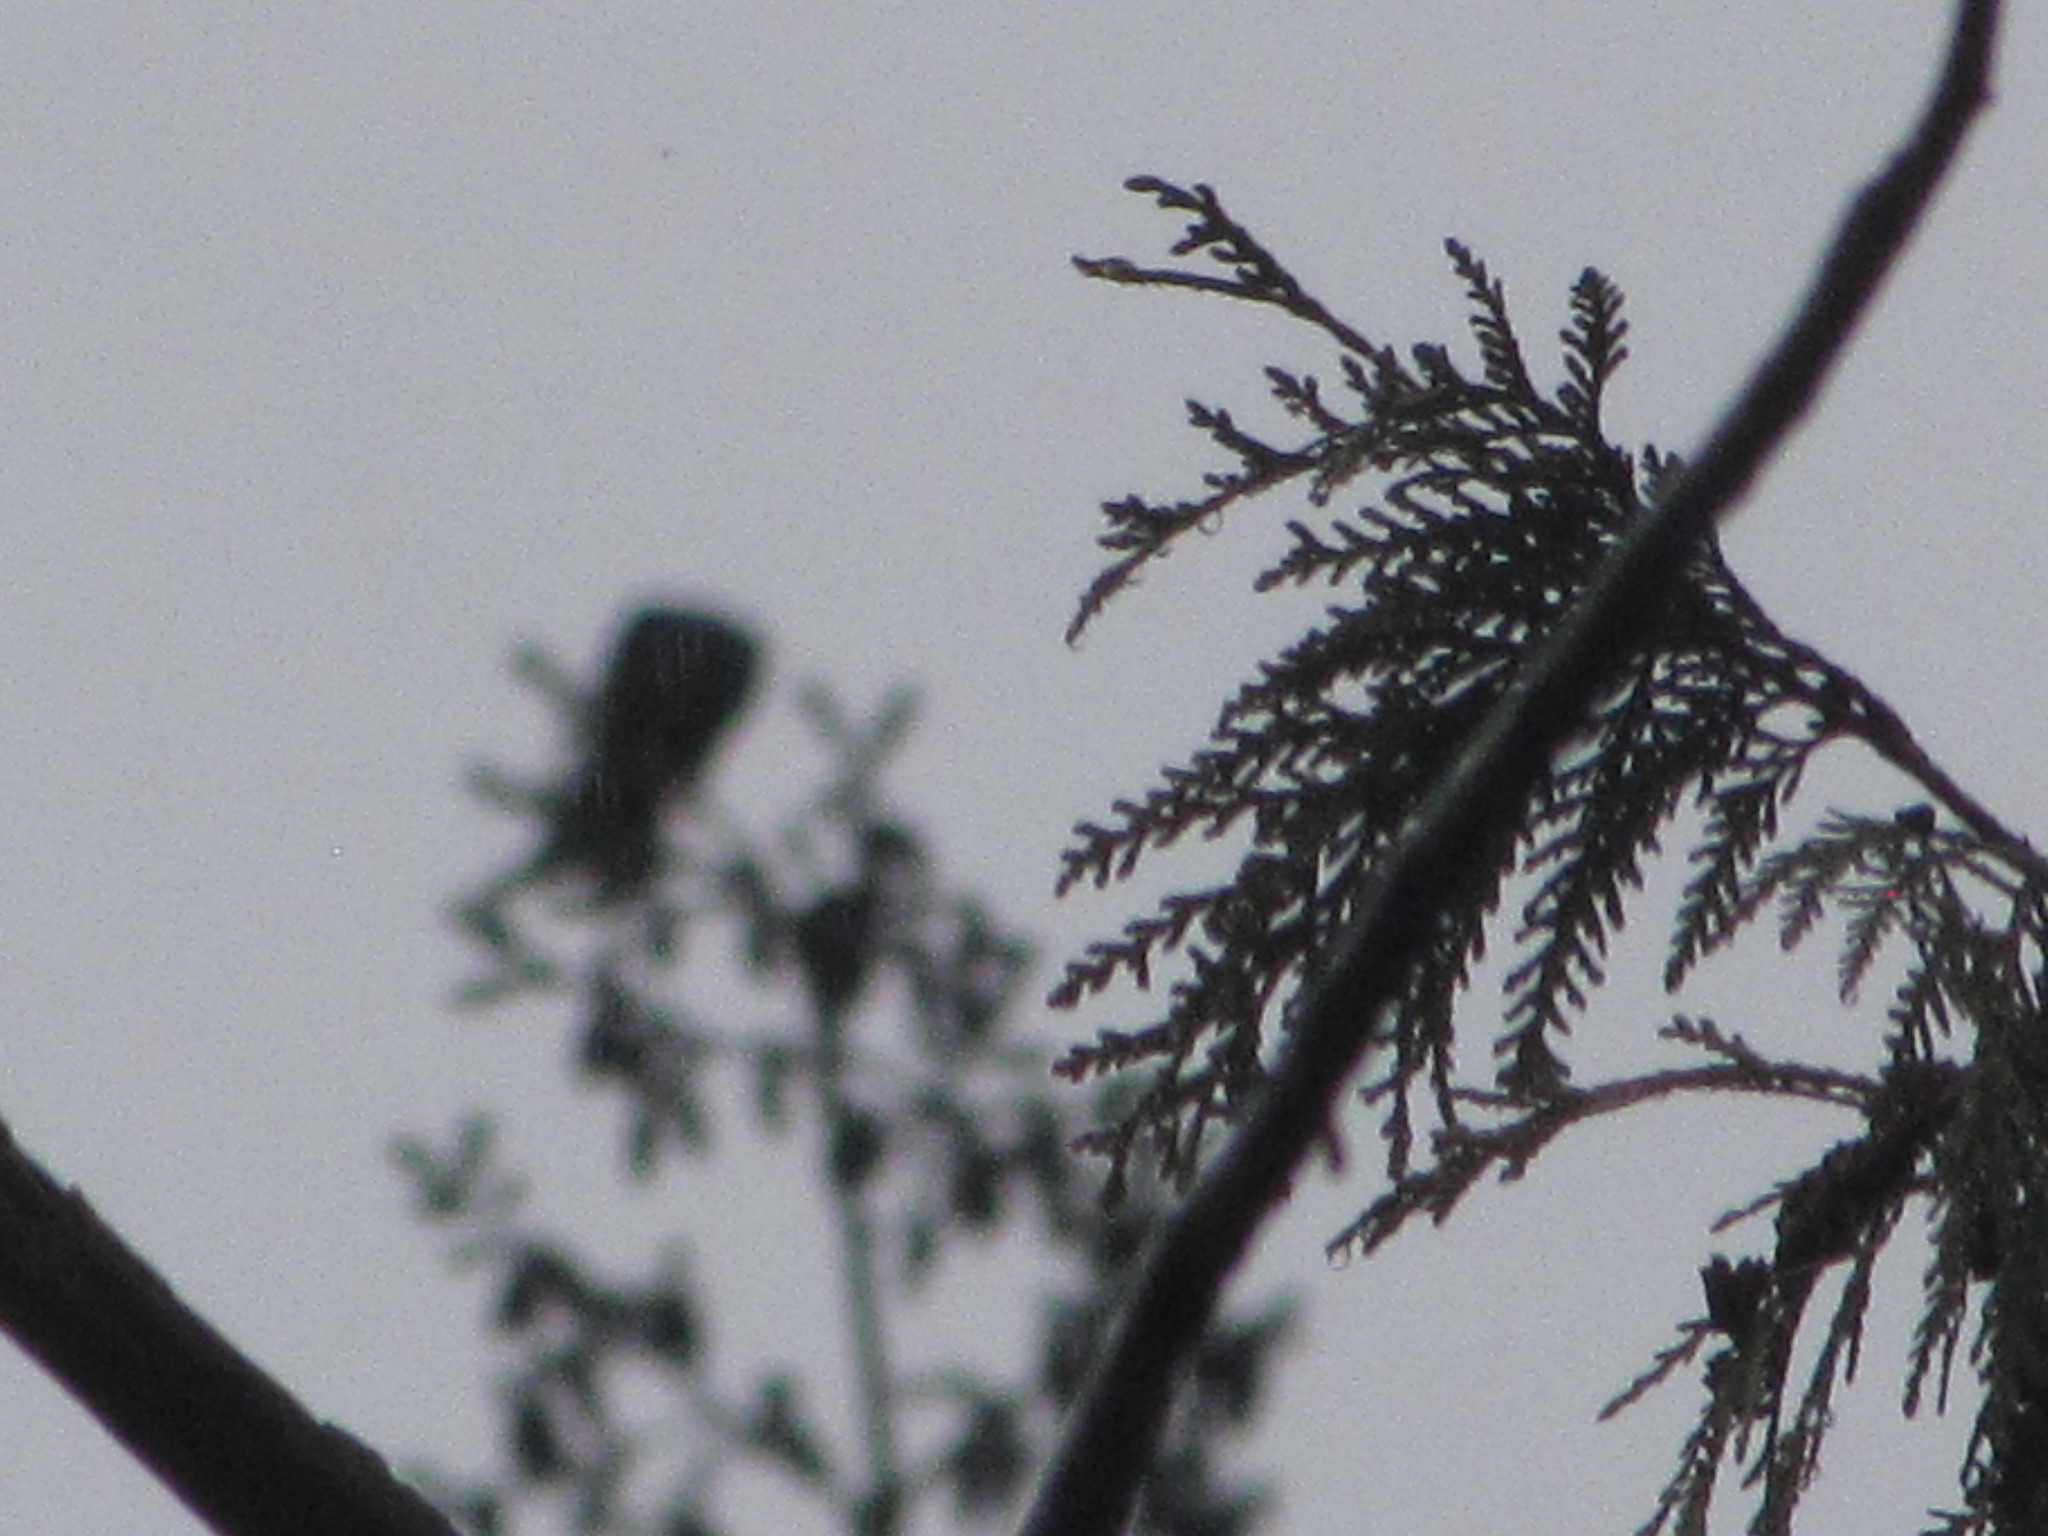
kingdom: Animalia
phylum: Chordata
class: Aves
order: Falconiformes
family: Falconidae
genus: Falco
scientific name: Falco columbarius
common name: Merlin
